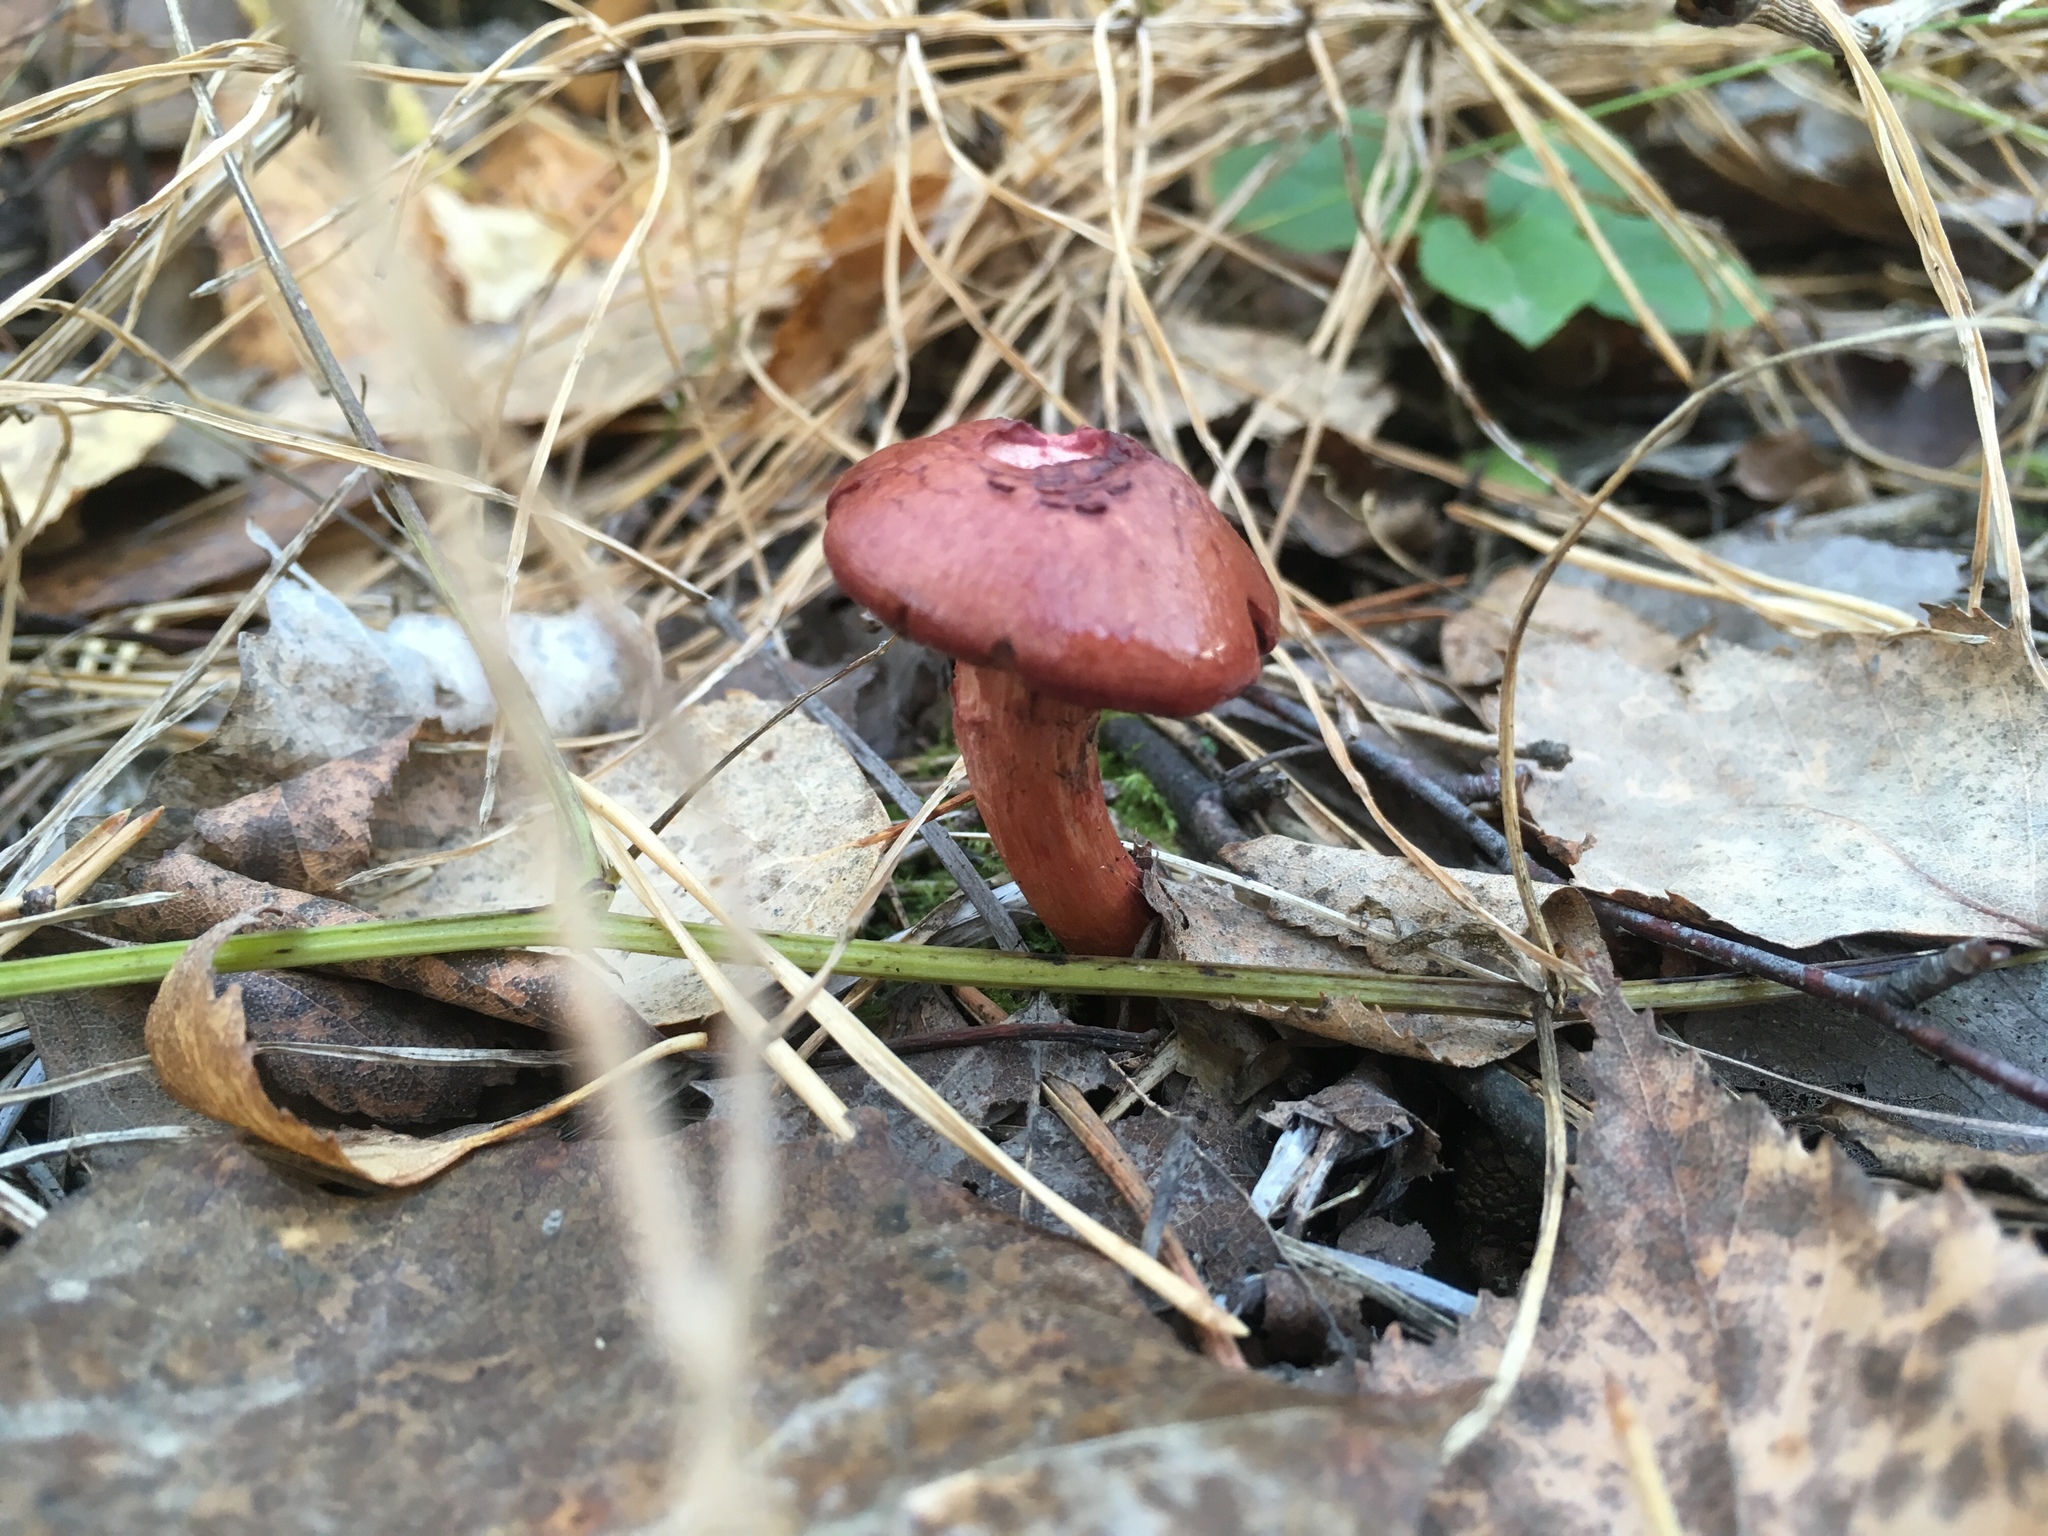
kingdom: Fungi
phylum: Basidiomycota
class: Agaricomycetes
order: Boletales
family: Gomphidiaceae
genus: Chroogomphus
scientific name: Chroogomphus rutilus
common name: Copper spike
